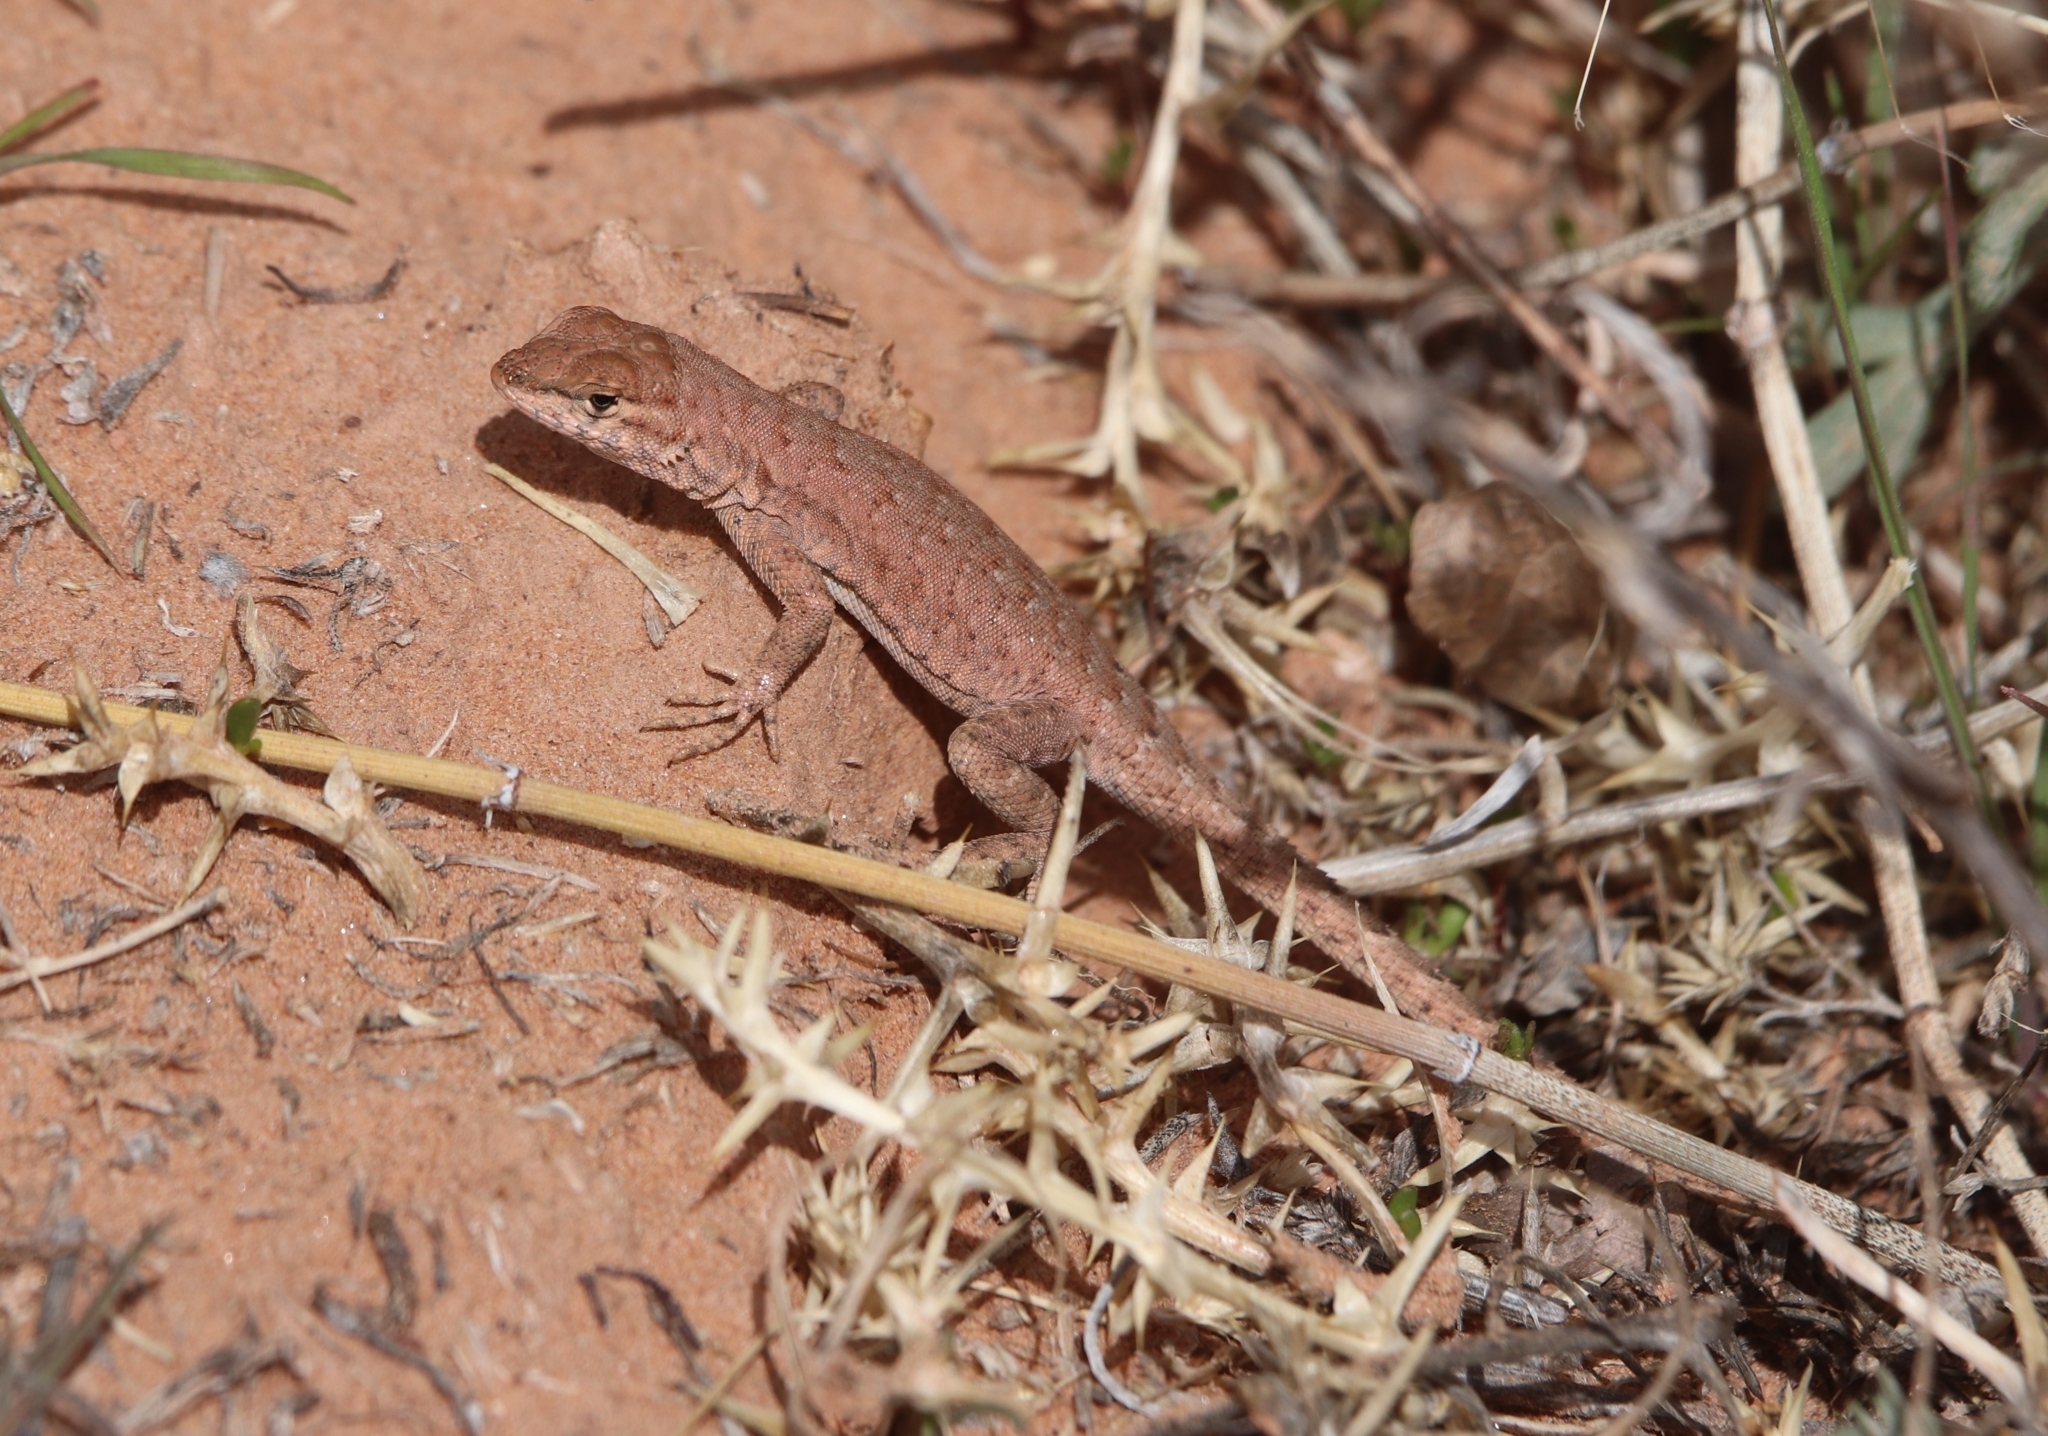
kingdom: Animalia
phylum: Chordata
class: Squamata
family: Phrynosomatidae
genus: Uta
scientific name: Uta stansburiana
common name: Side-blotched lizard
